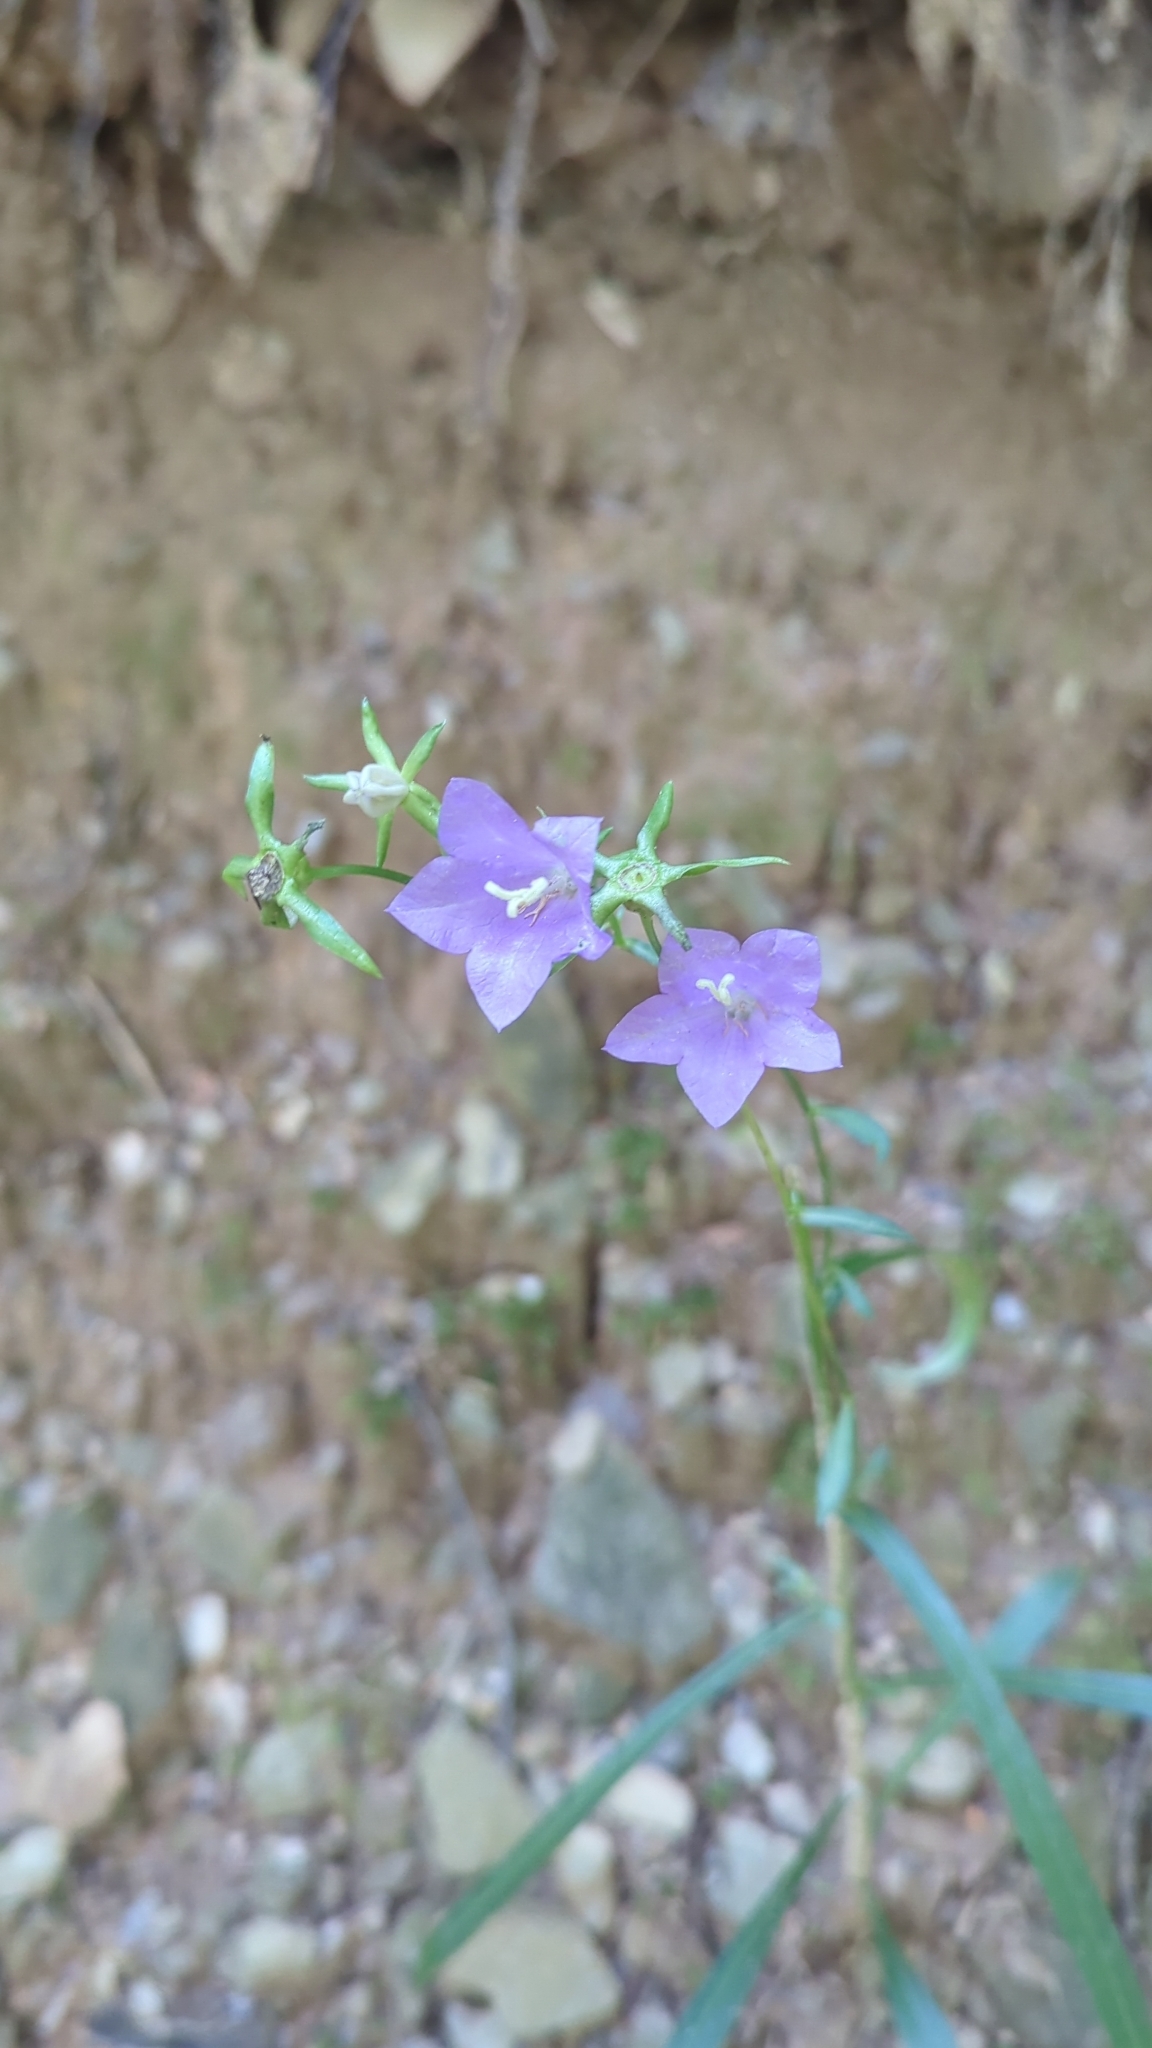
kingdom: Plantae
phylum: Tracheophyta
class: Magnoliopsida
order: Asterales
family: Campanulaceae
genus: Campanula
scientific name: Campanula persicifolia
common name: Peach-leaved bellflower
